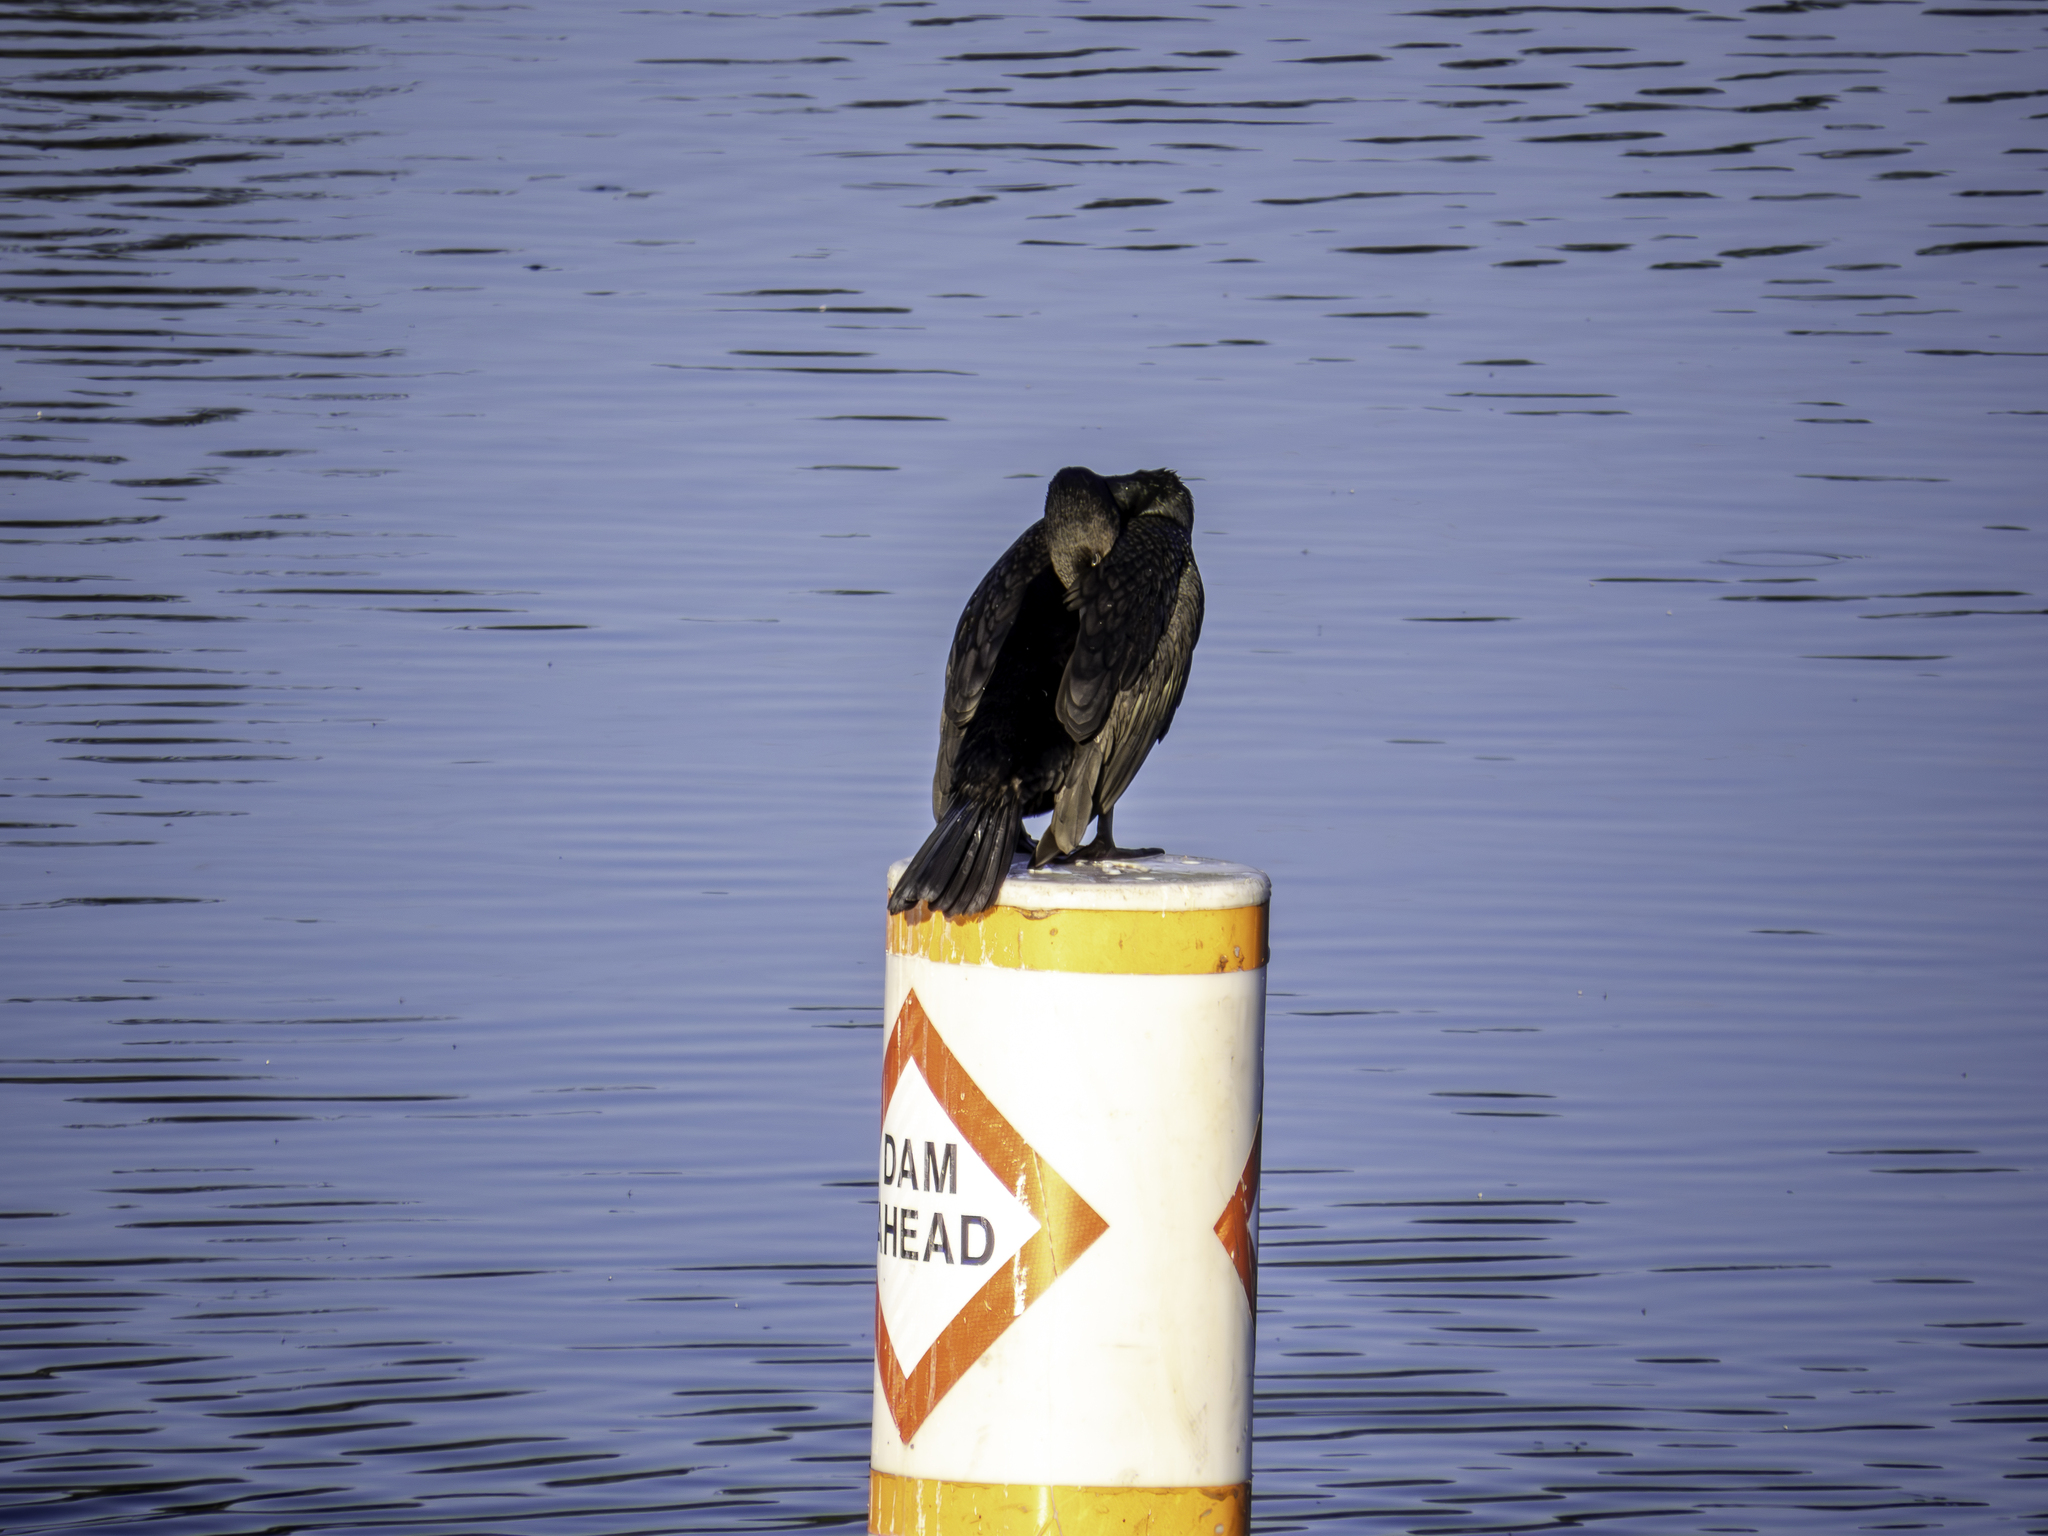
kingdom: Animalia
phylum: Chordata
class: Aves
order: Suliformes
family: Phalacrocoracidae
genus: Phalacrocorax
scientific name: Phalacrocorax auritus
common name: Double-crested cormorant
